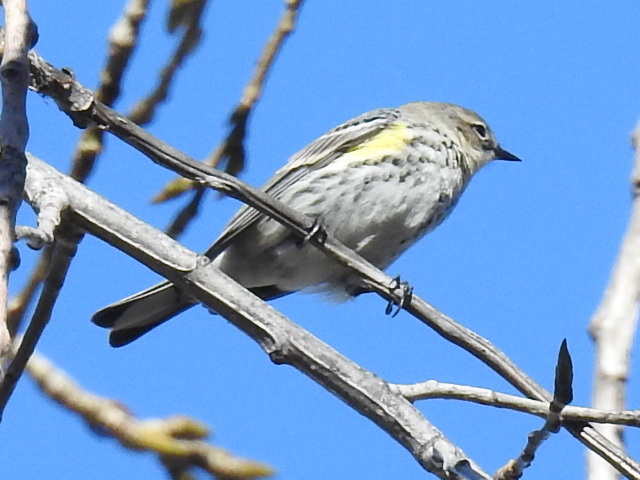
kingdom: Animalia
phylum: Chordata
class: Aves
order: Passeriformes
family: Parulidae
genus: Setophaga
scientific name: Setophaga coronata
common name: Myrtle warbler
